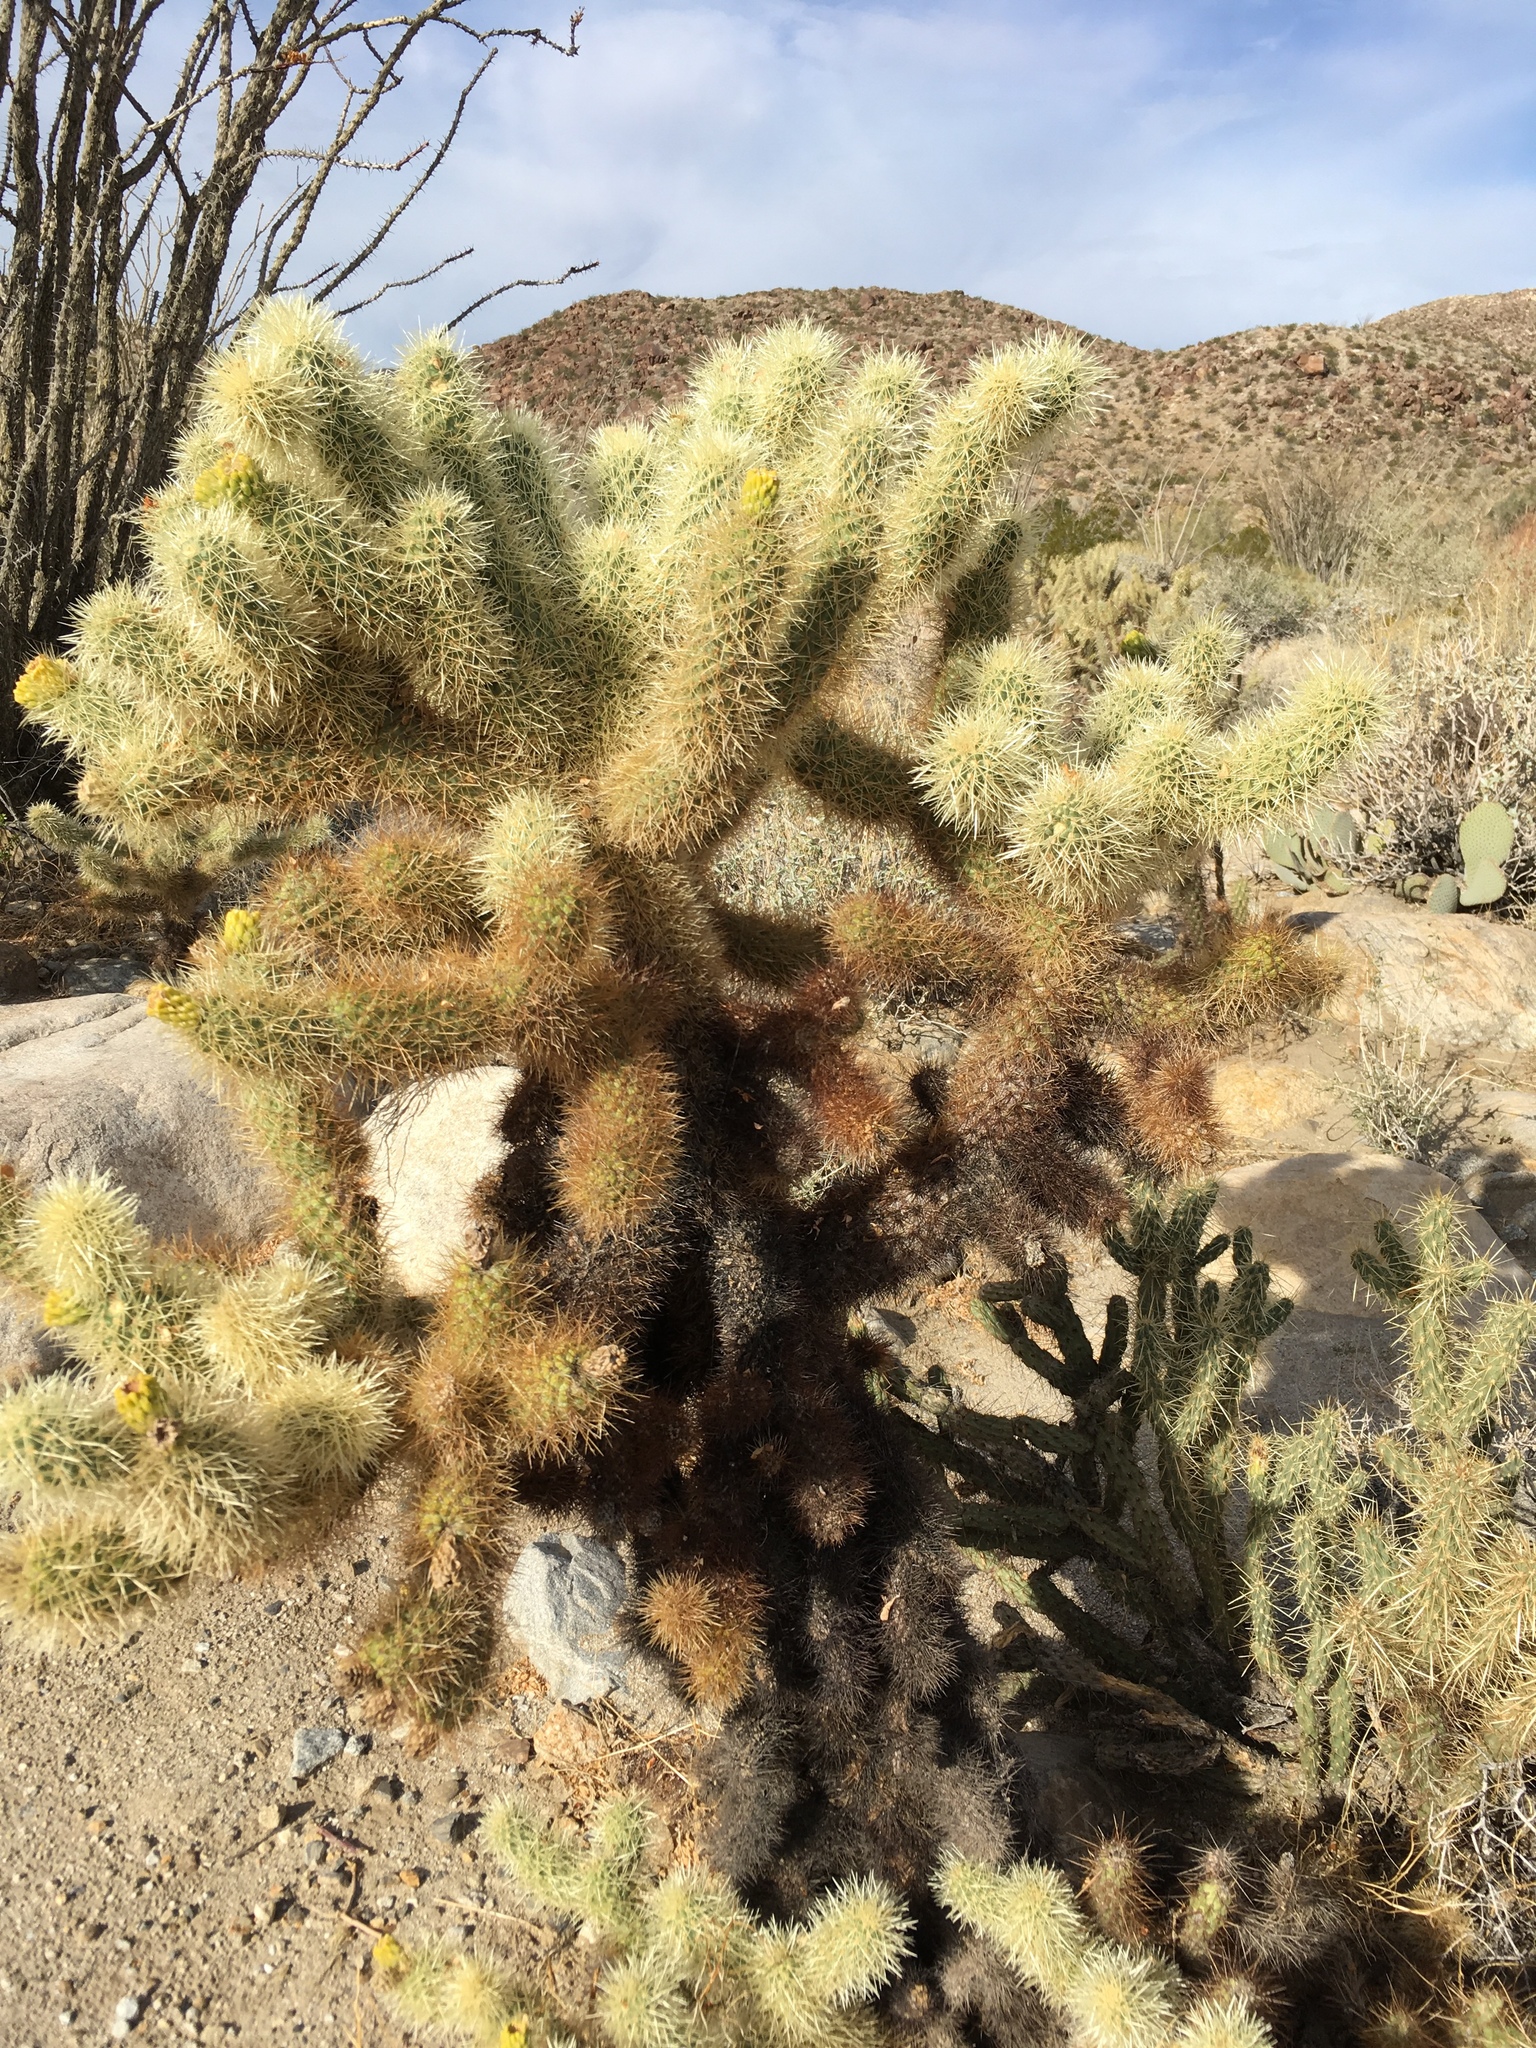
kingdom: Plantae
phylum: Tracheophyta
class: Magnoliopsida
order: Caryophyllales
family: Cactaceae
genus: Cylindropuntia
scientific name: Cylindropuntia fosbergii
